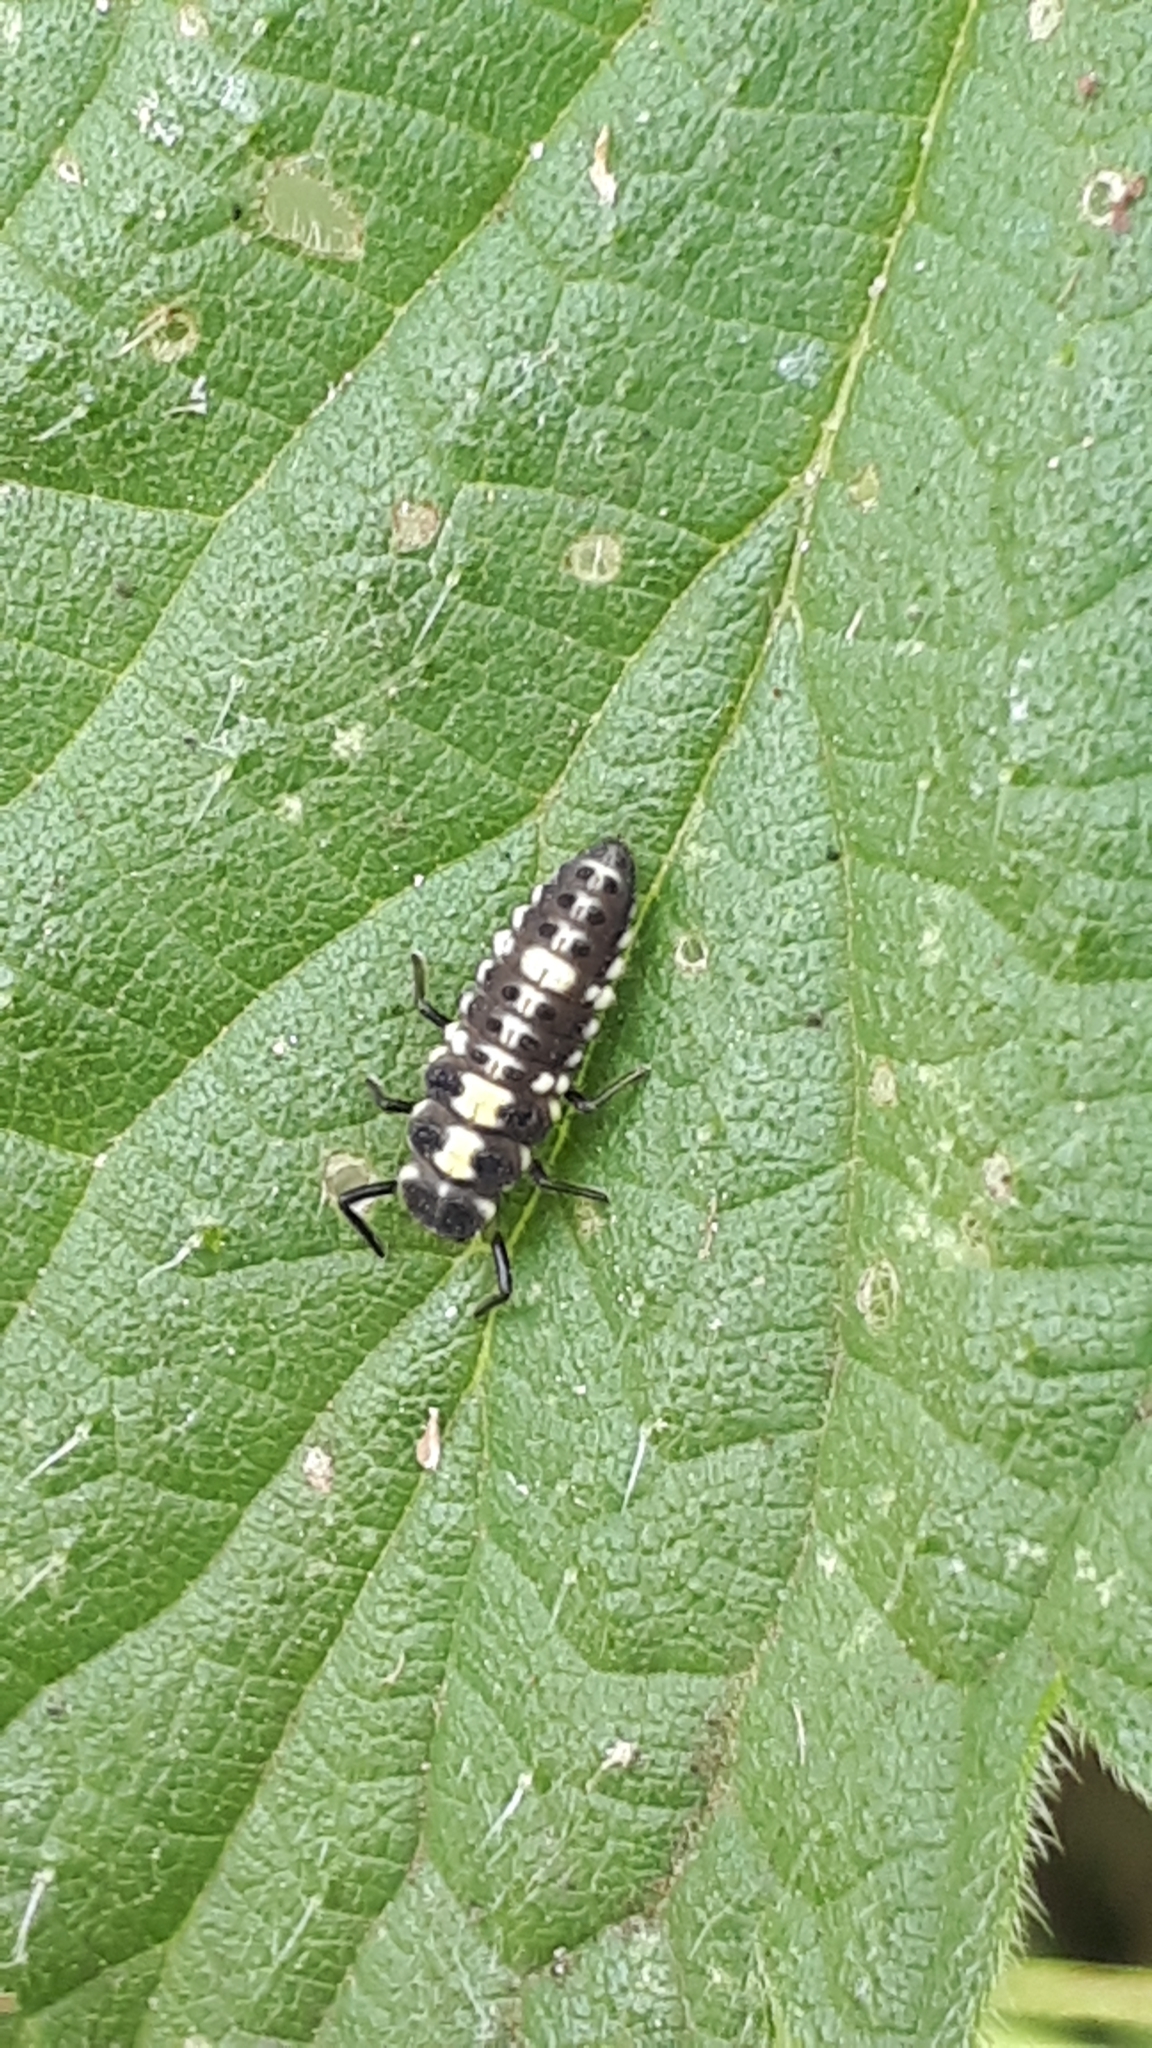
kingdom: Animalia
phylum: Arthropoda
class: Insecta
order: Coleoptera
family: Coccinellidae
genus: Propylaea
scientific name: Propylaea quatuordecimpunctata
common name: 14-spotted ladybird beetle
